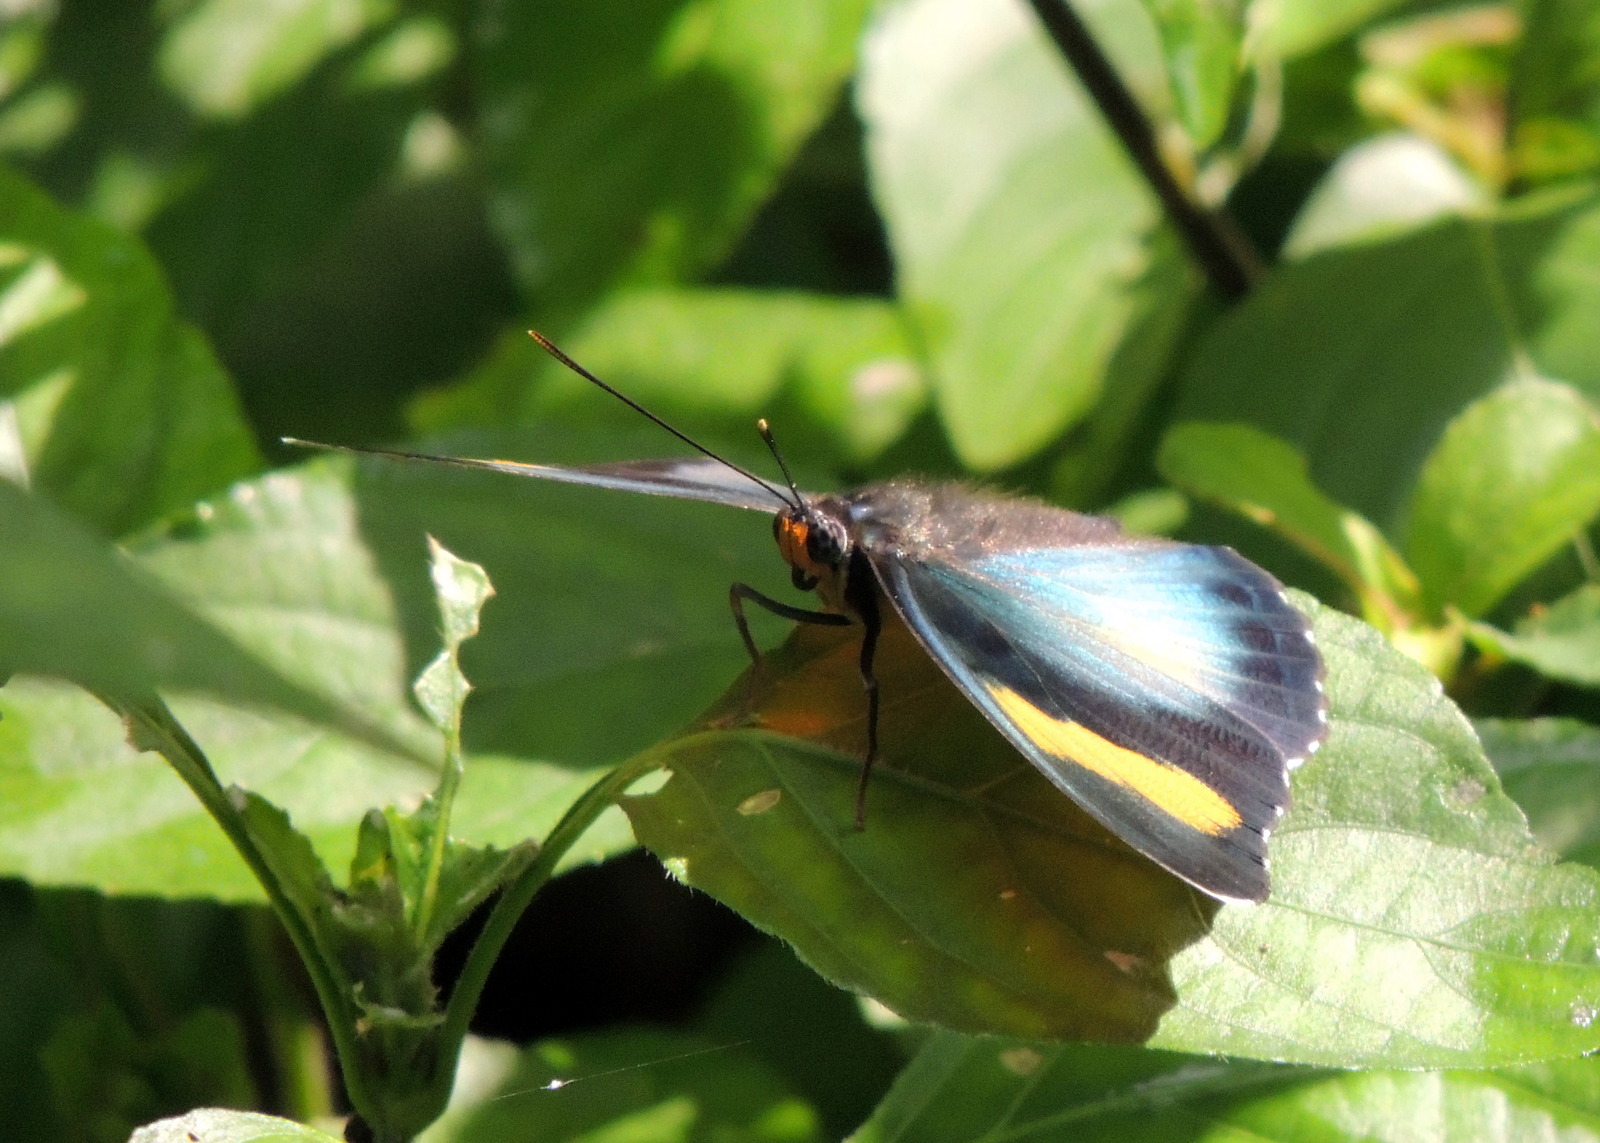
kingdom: Animalia
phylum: Arthropoda
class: Insecta
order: Lepidoptera
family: Nymphalidae
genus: Euphaedra
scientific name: Euphaedra ceres
